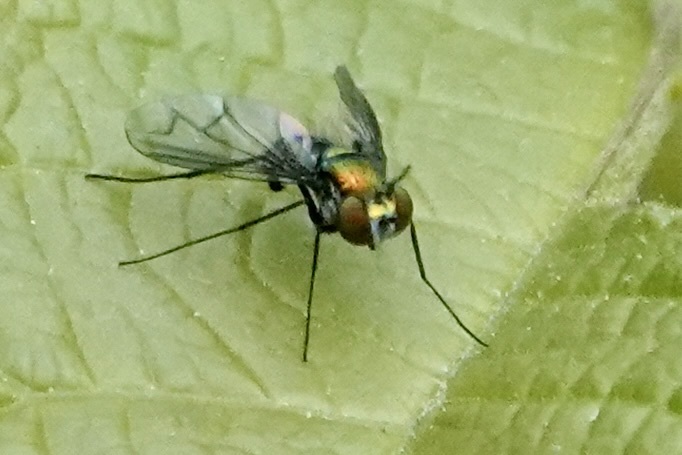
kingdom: Animalia
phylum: Arthropoda
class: Insecta
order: Diptera
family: Dolichopodidae
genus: Condylostylus
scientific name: Condylostylus patibulatus
